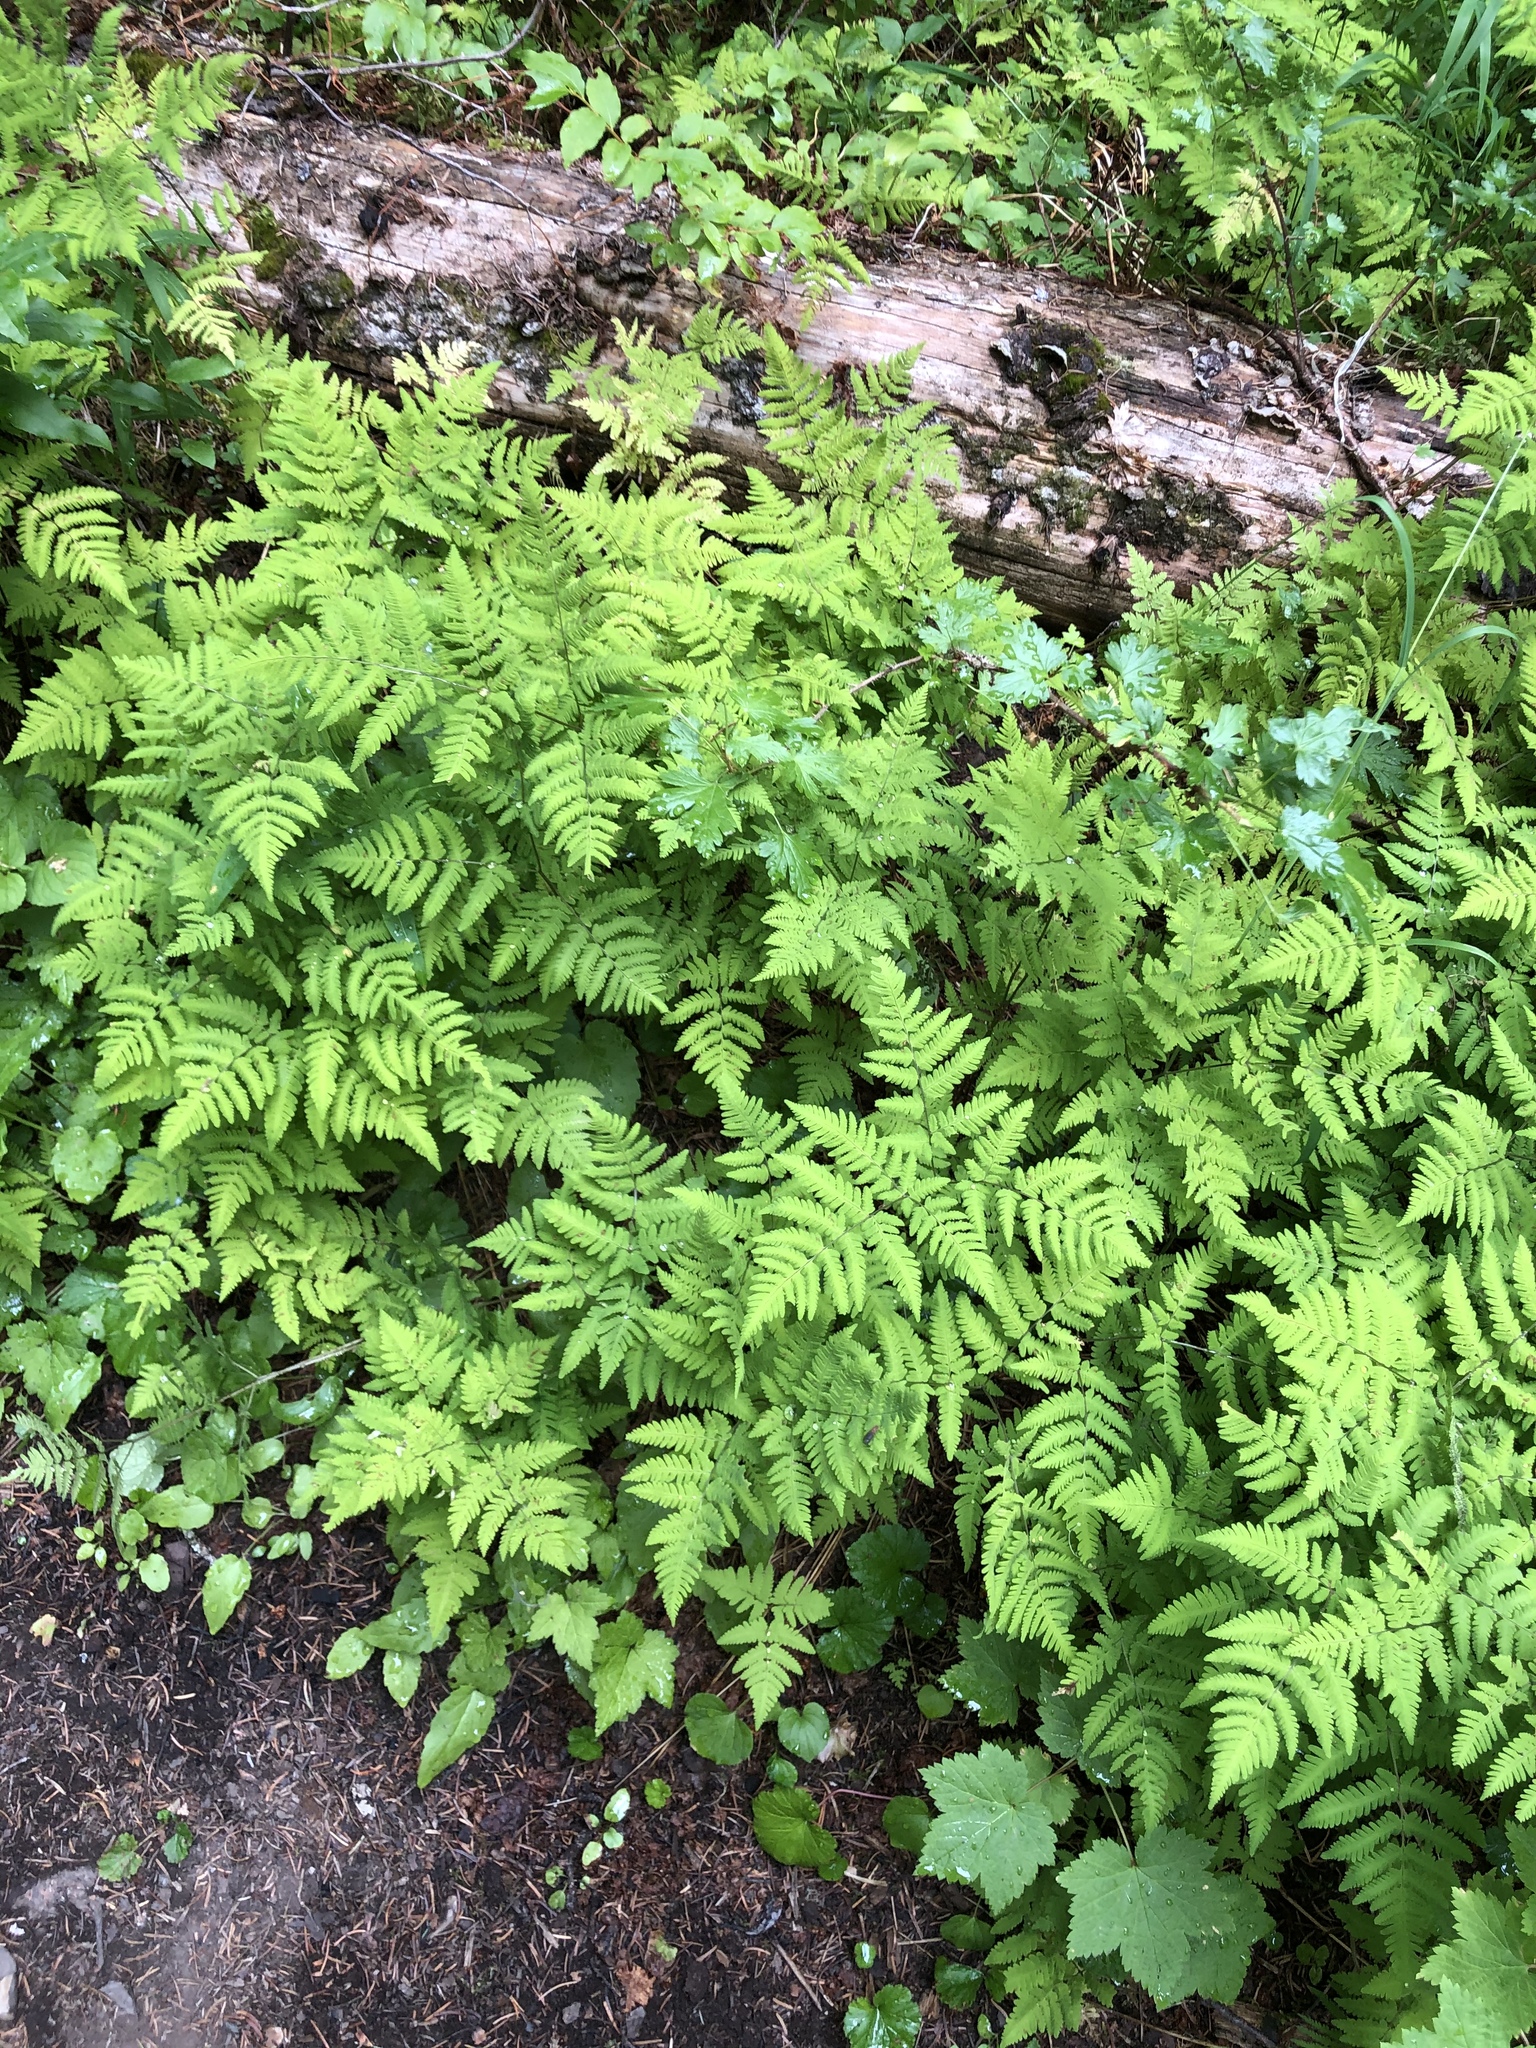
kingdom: Plantae
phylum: Tracheophyta
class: Polypodiopsida
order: Polypodiales
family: Cystopteridaceae
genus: Gymnocarpium
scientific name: Gymnocarpium disjunctum
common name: Western oak fern
